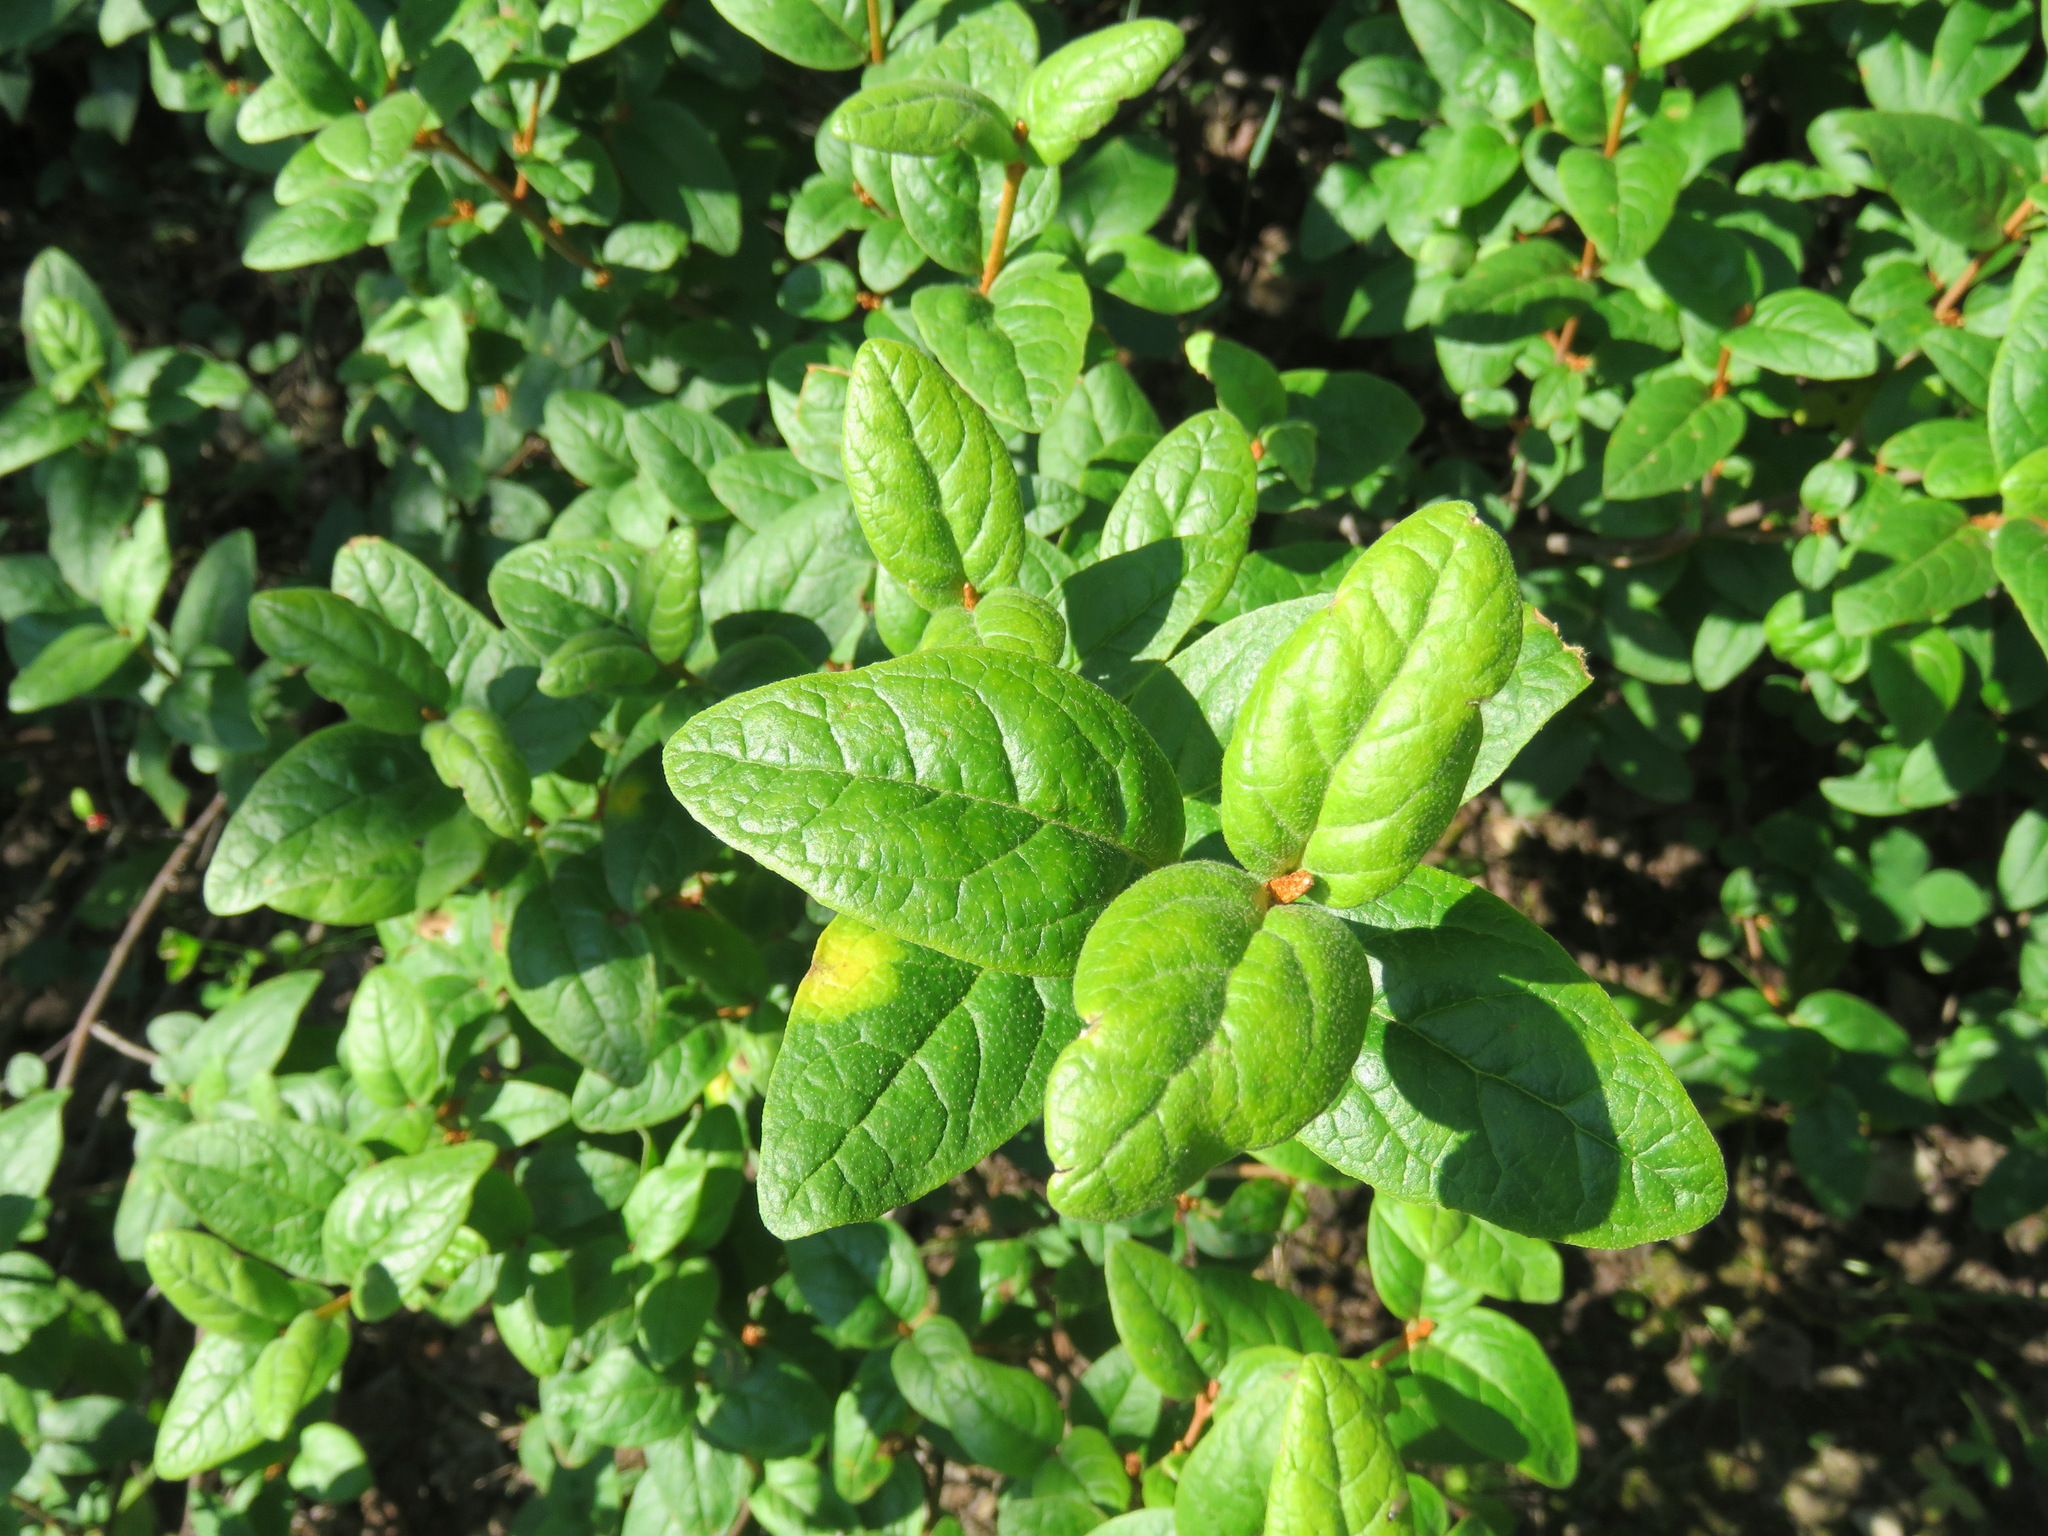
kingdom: Plantae
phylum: Tracheophyta
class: Magnoliopsida
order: Rosales
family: Elaeagnaceae
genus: Shepherdia
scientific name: Shepherdia canadensis
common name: Soapberry
